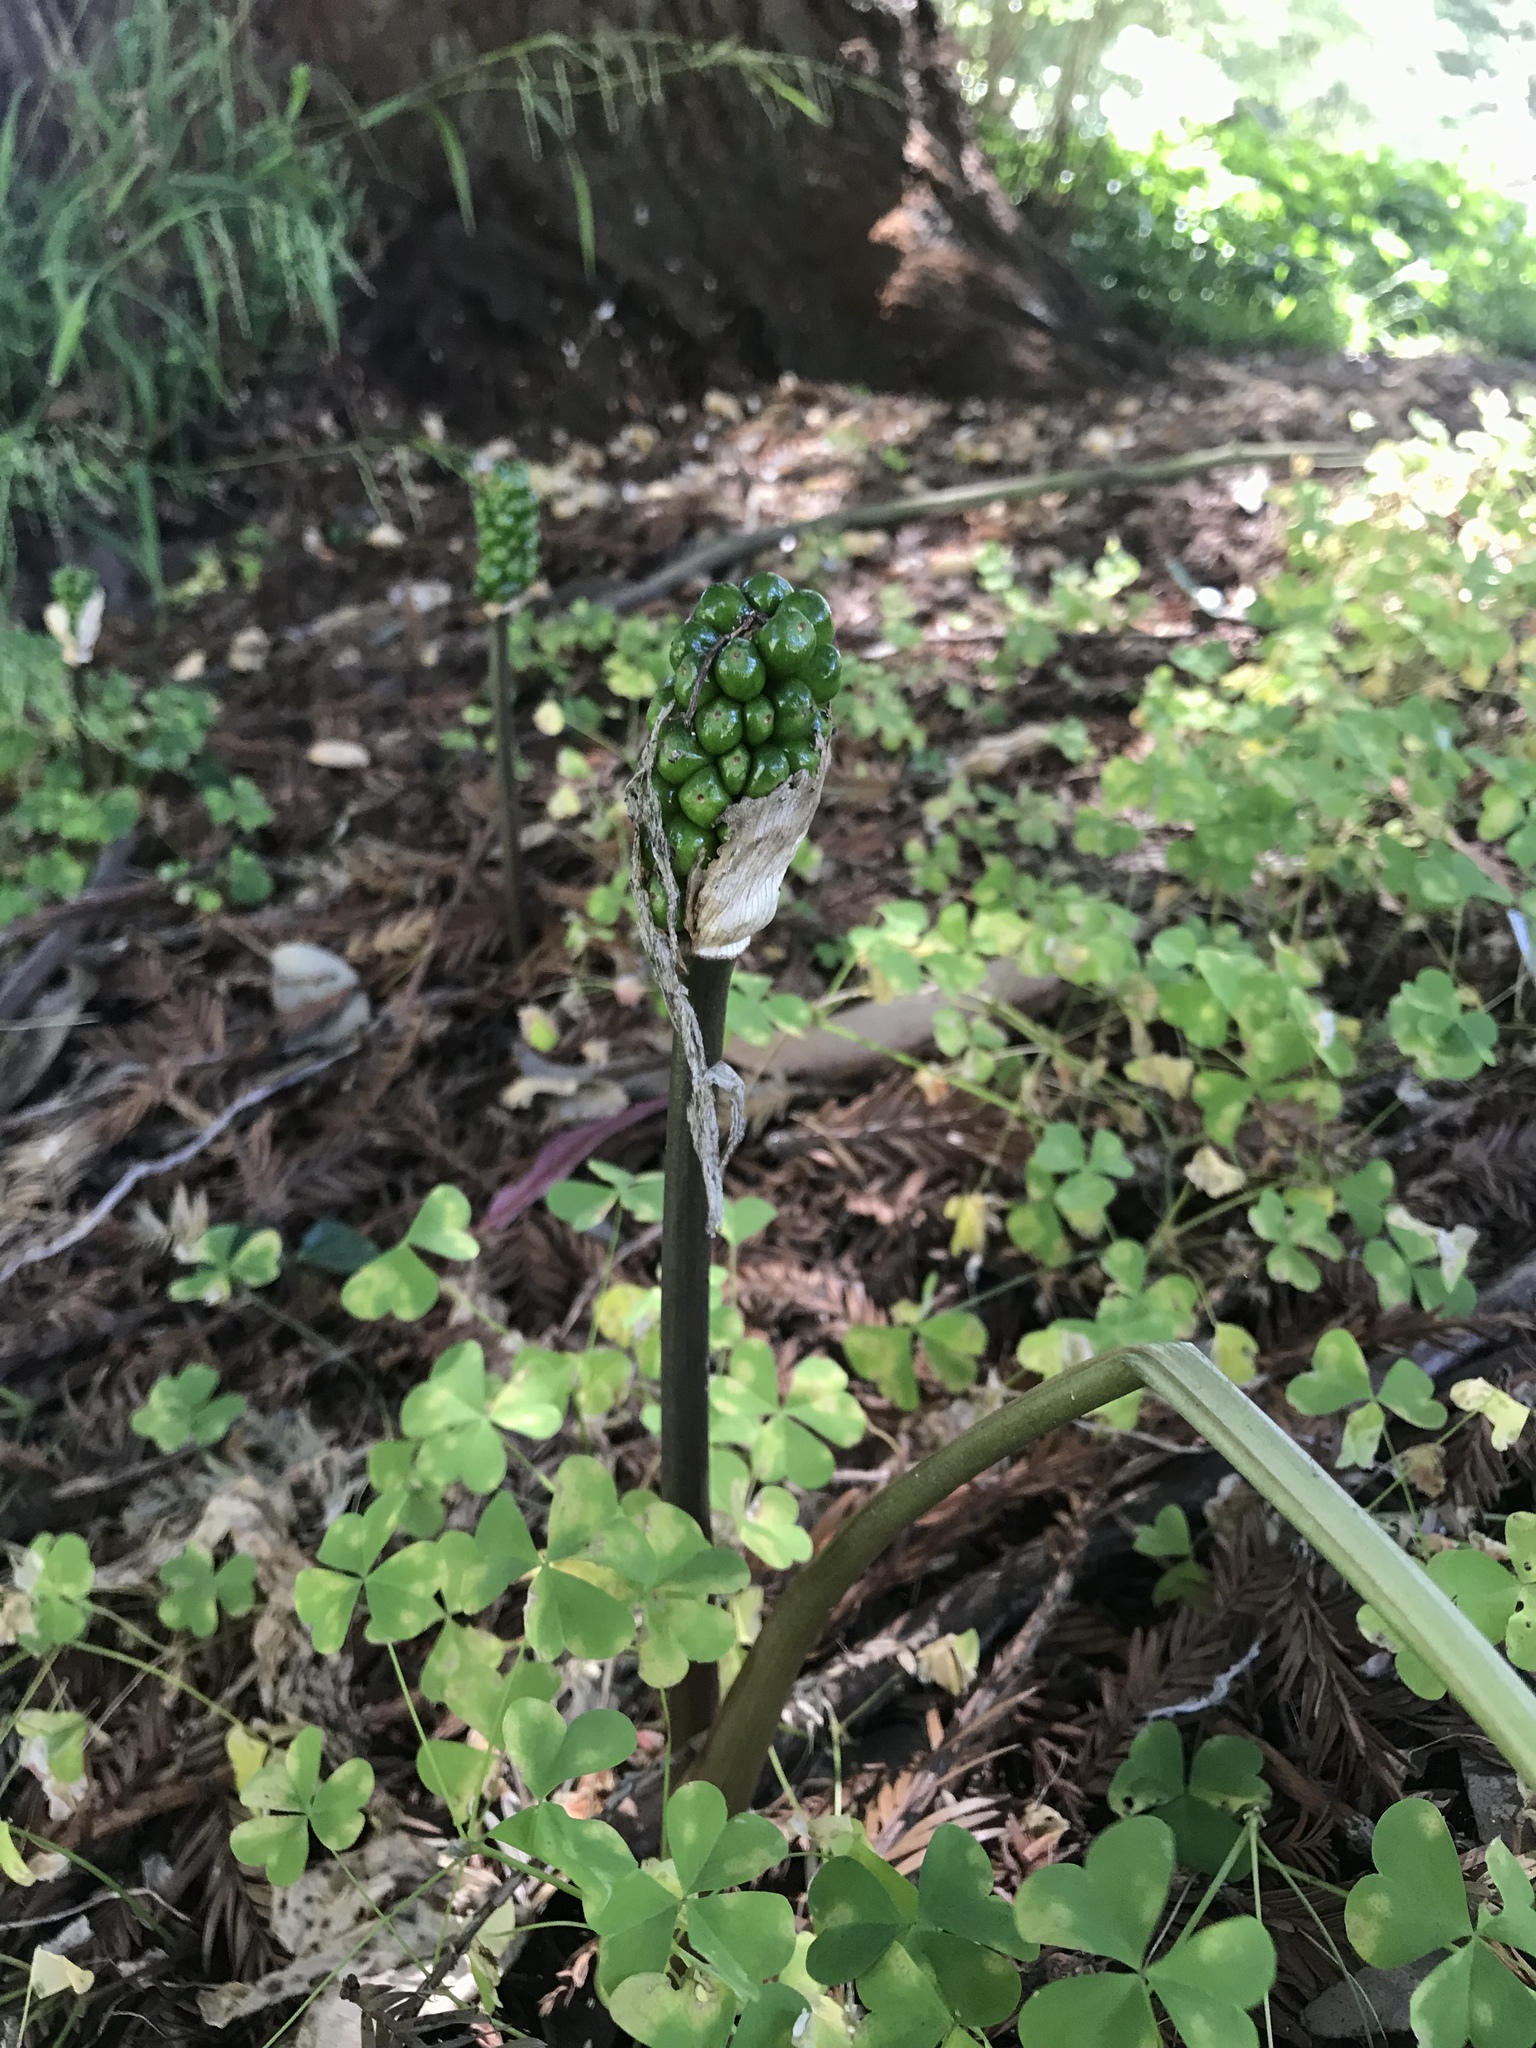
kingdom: Plantae
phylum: Tracheophyta
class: Liliopsida
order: Alismatales
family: Araceae
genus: Arum
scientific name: Arum italicum
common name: Italian lords-and-ladies
